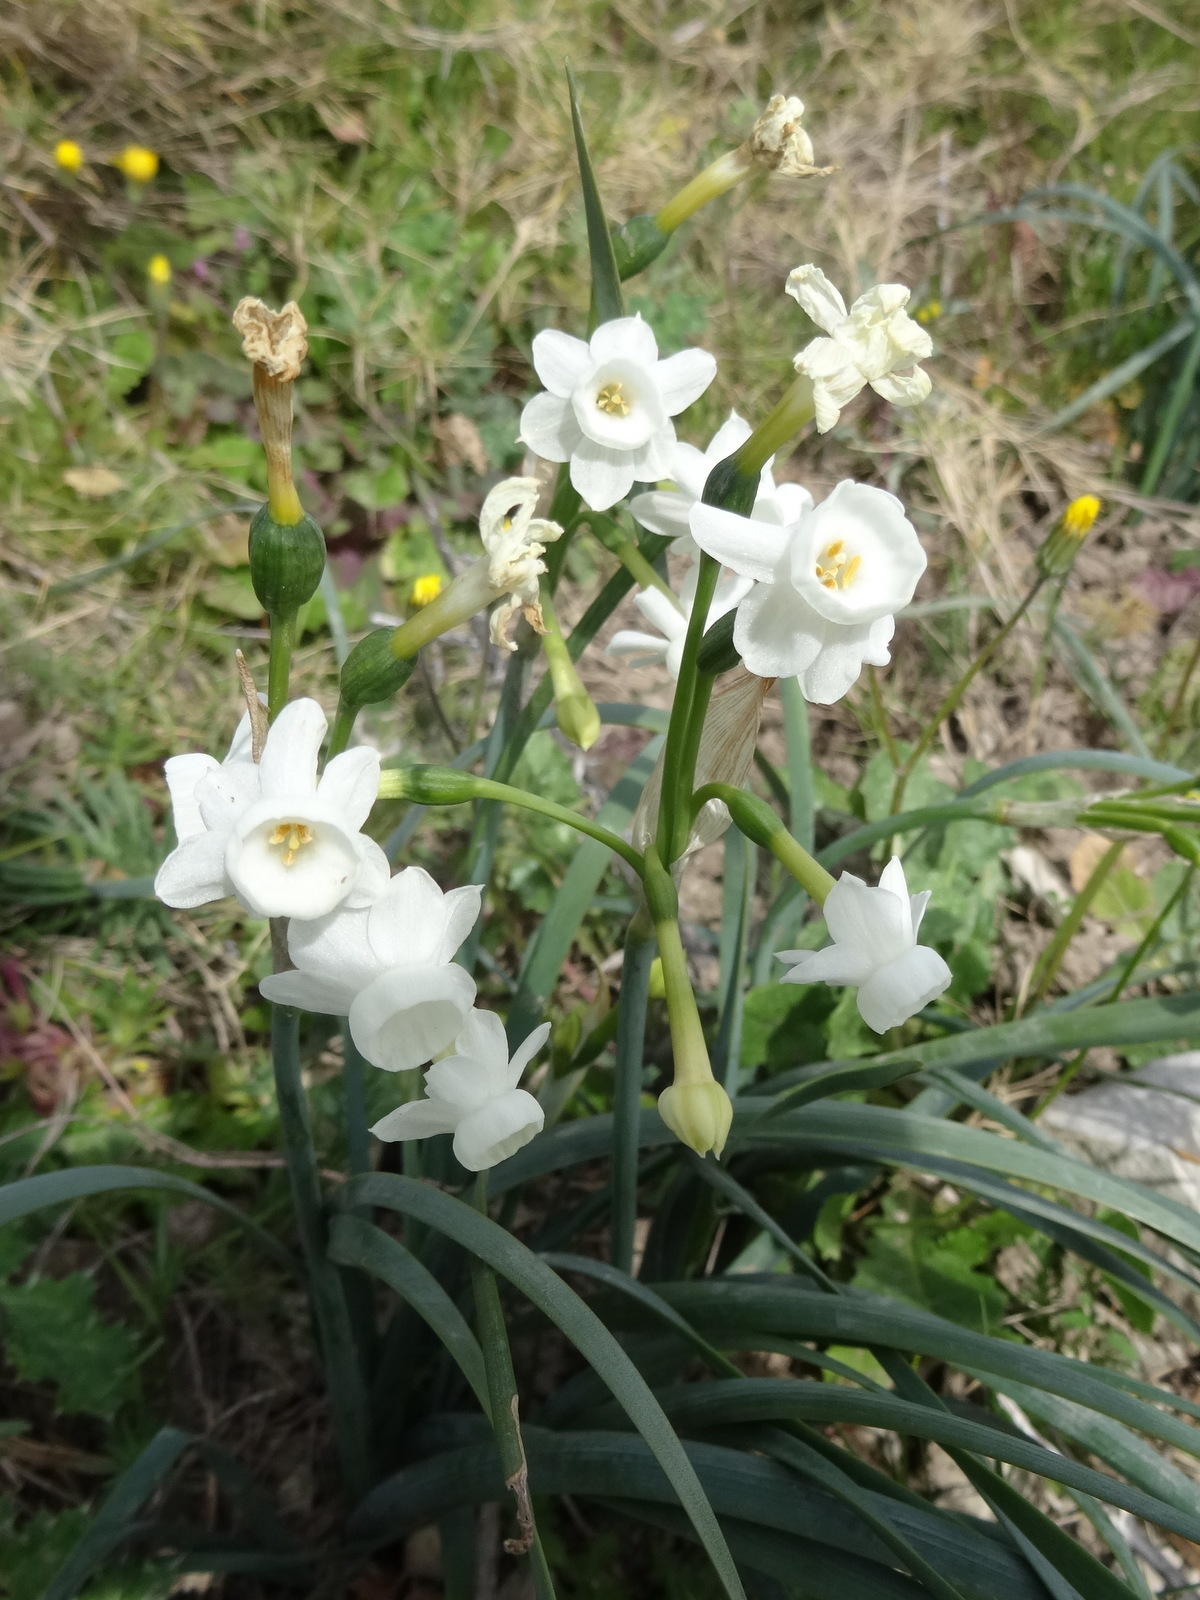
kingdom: Plantae
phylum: Tracheophyta
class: Liliopsida
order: Asparagales
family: Amaryllidaceae
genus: Narcissus
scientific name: Narcissus dubius
